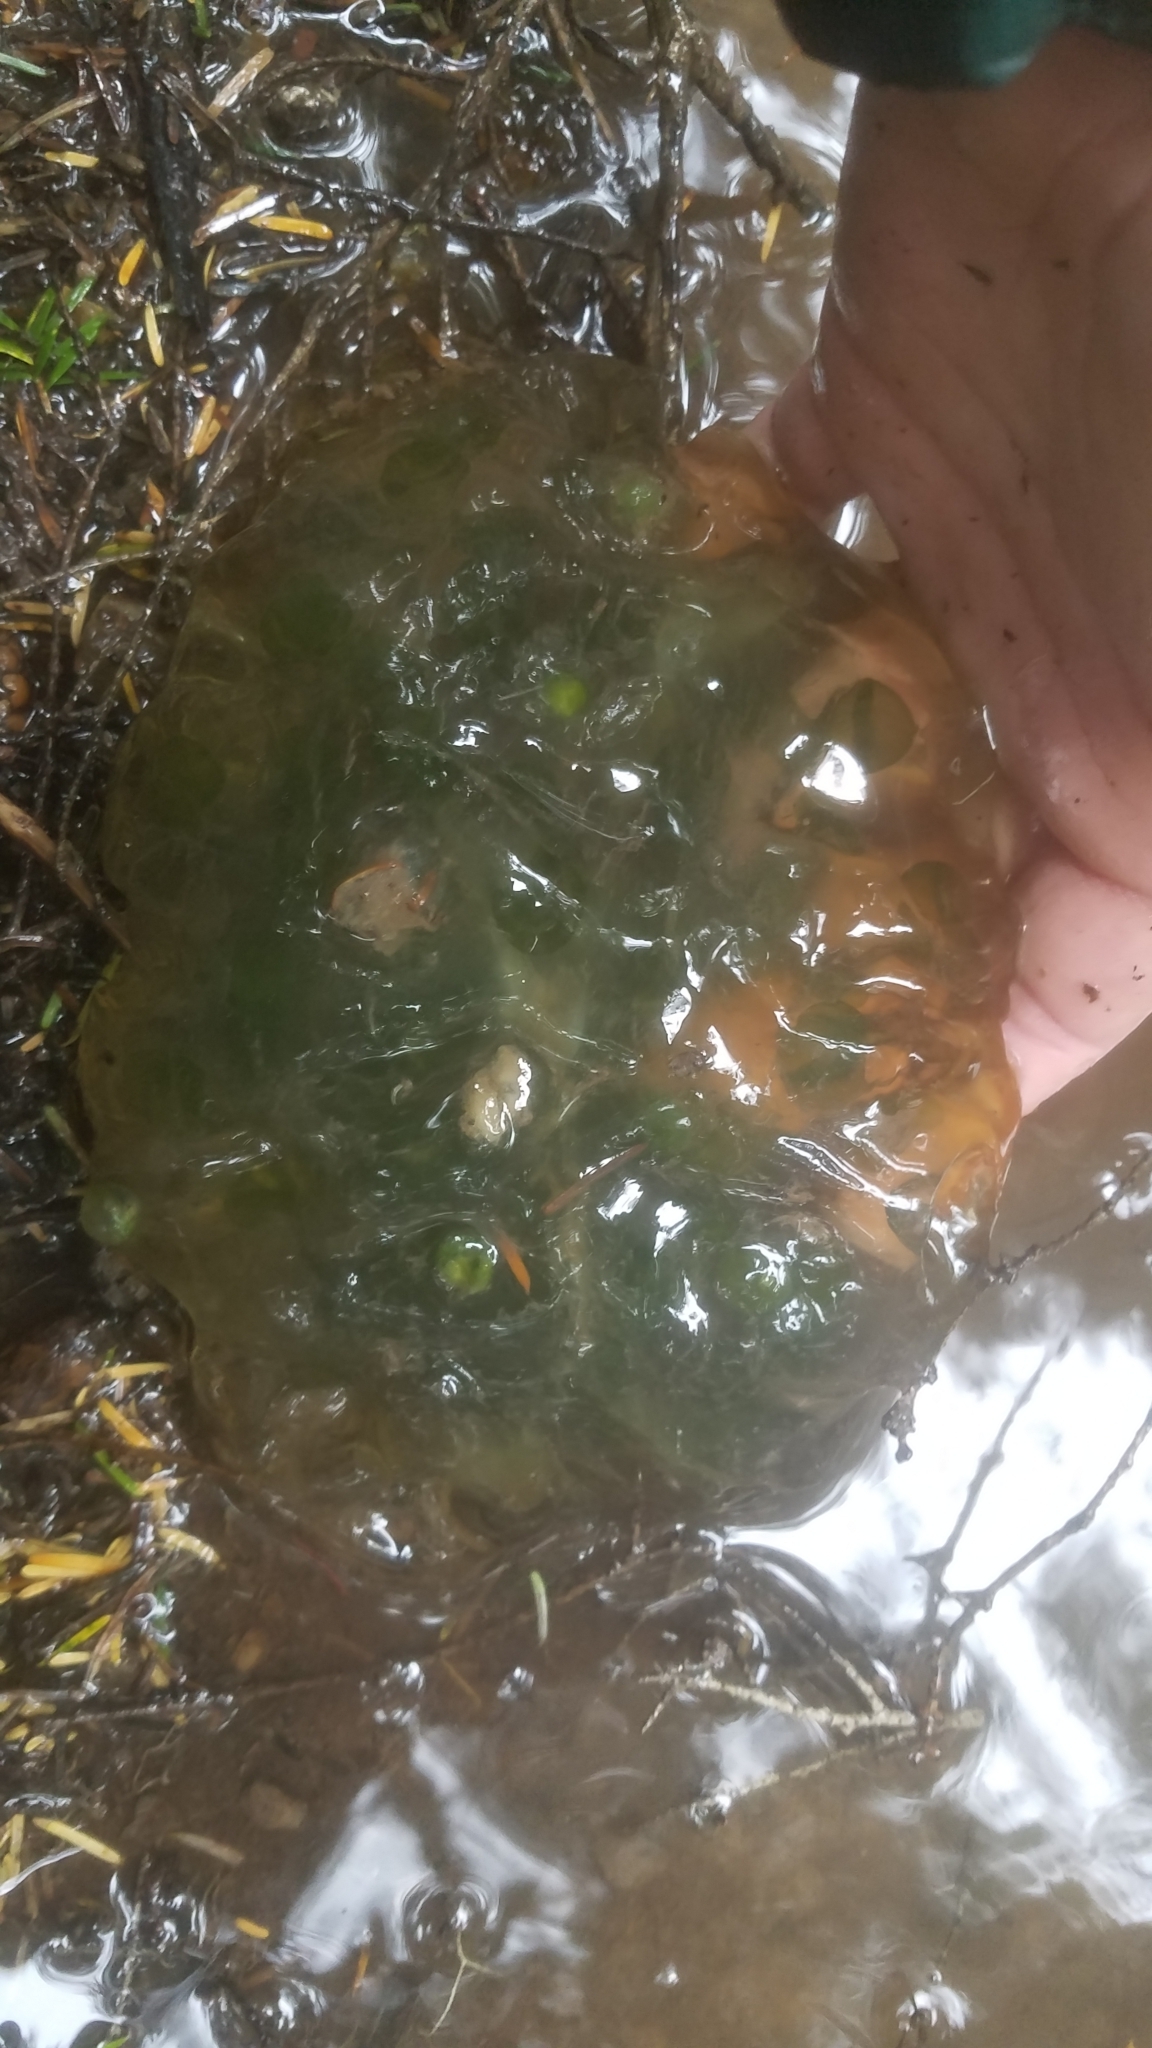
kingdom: Animalia
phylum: Chordata
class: Amphibia
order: Caudata
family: Ambystomatidae
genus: Ambystoma
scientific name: Ambystoma gracile
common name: Northwestern salamander
